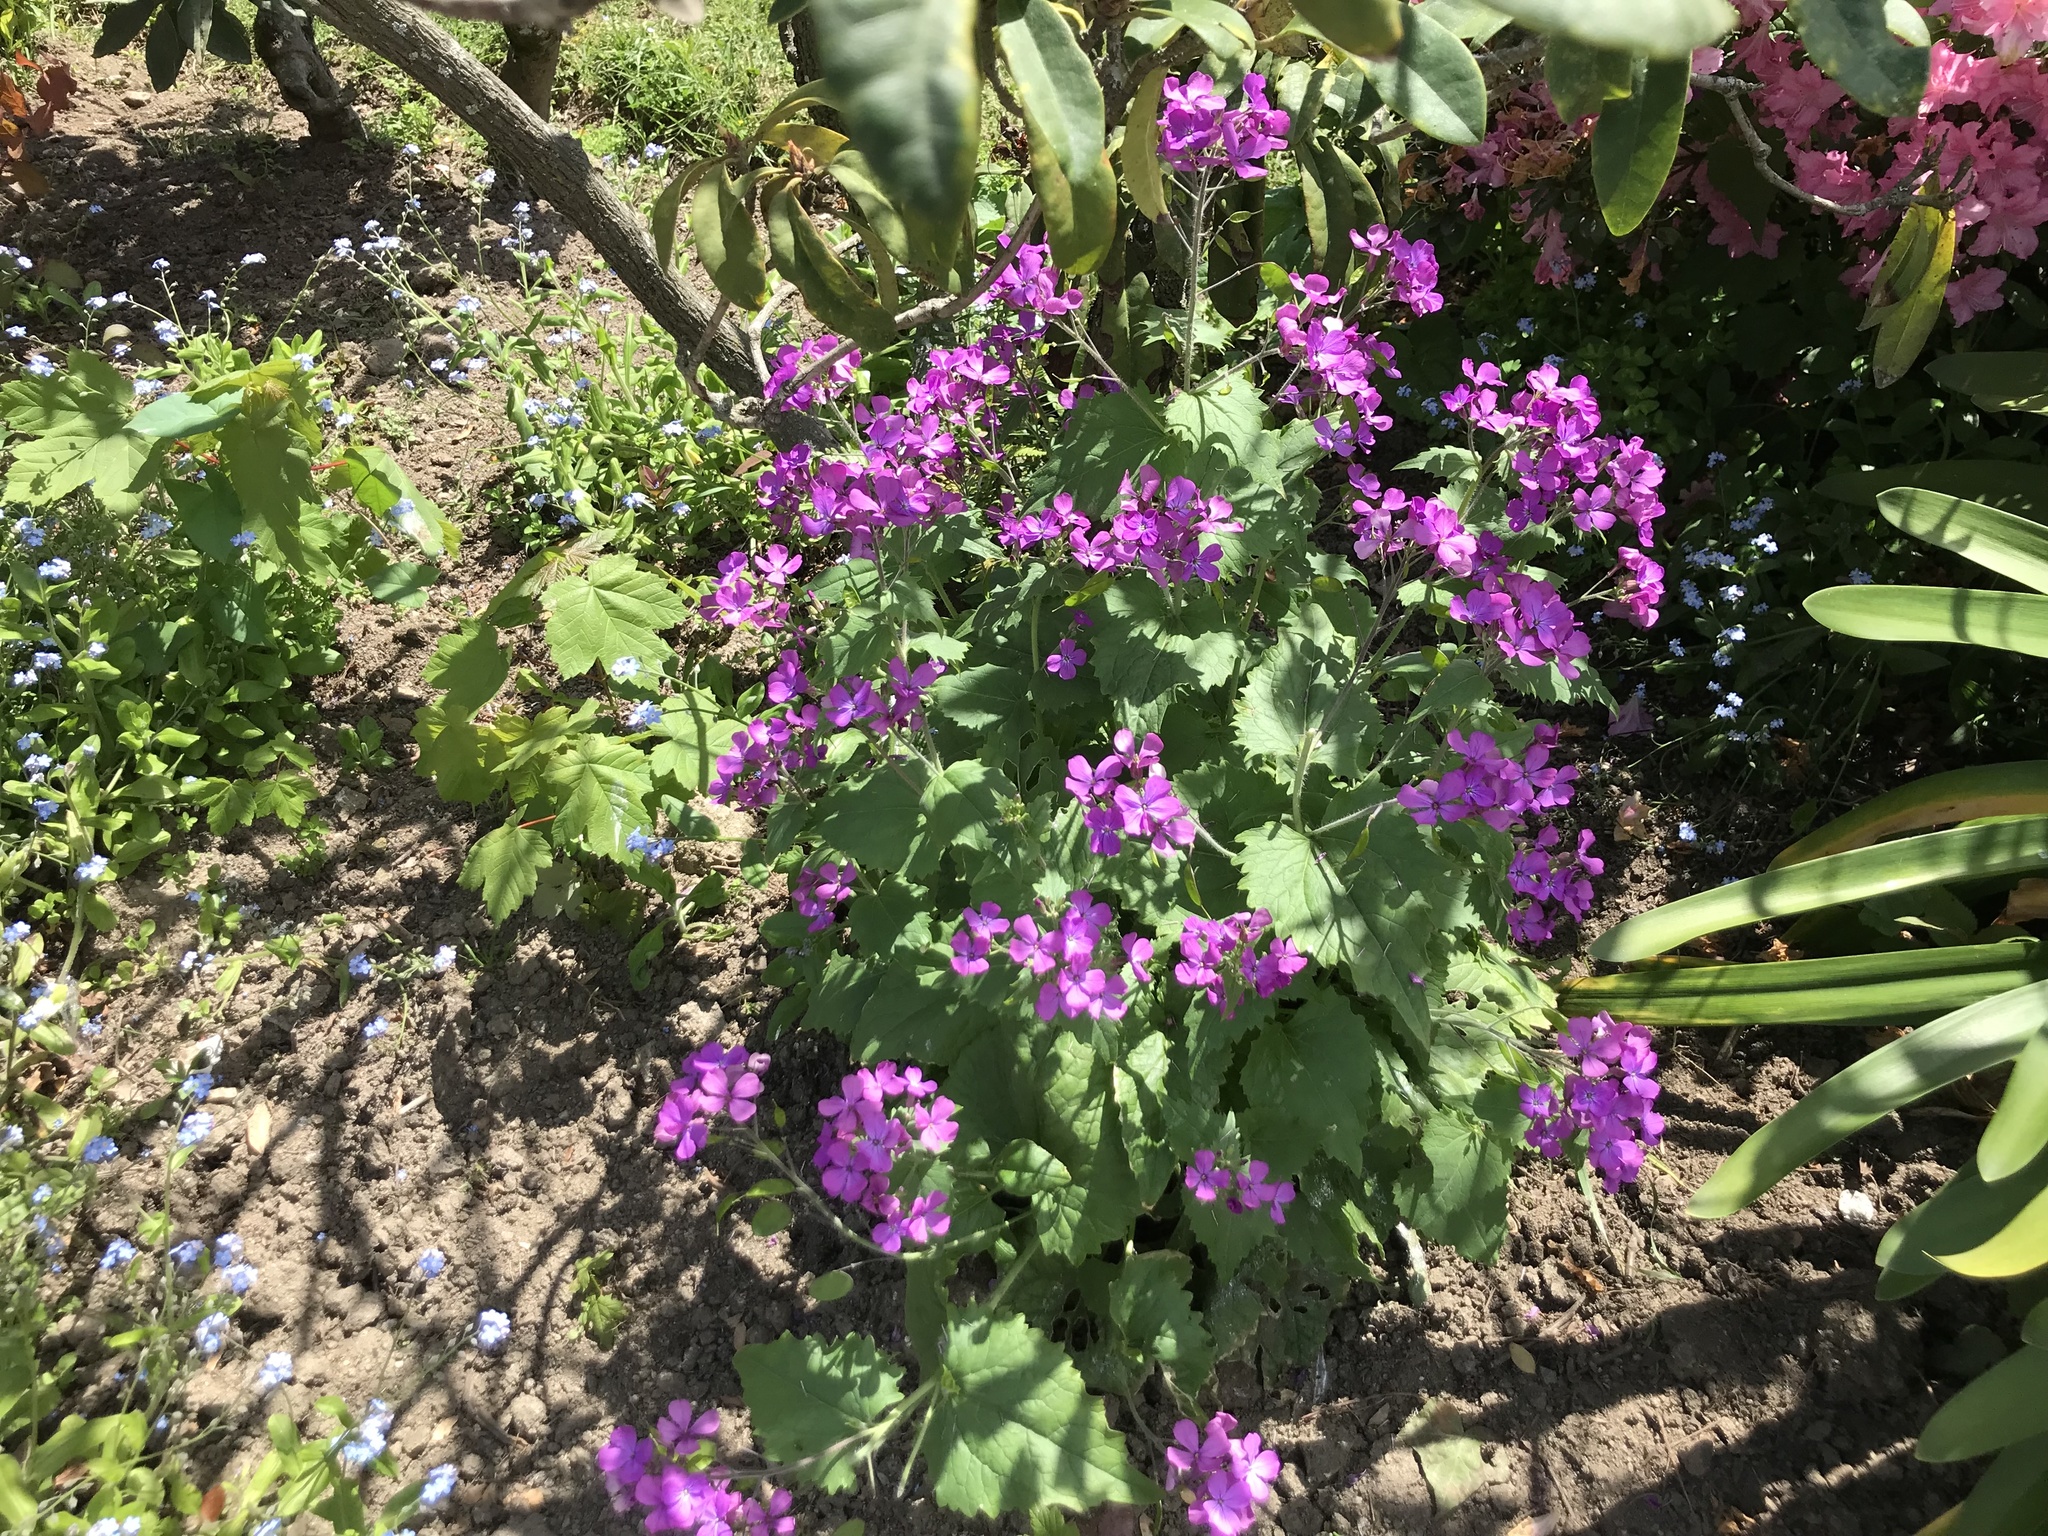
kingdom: Plantae
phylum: Tracheophyta
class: Magnoliopsida
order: Brassicales
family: Brassicaceae
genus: Lunaria
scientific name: Lunaria annua
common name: Honesty
